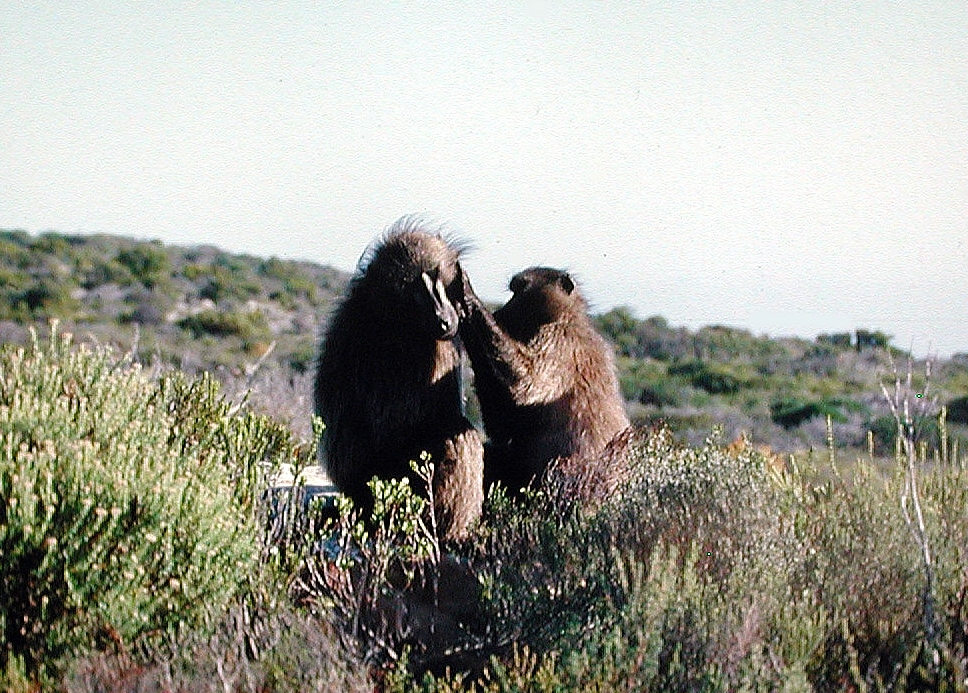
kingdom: Animalia
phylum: Chordata
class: Mammalia
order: Primates
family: Cercopithecidae
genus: Papio
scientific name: Papio ursinus
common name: Chacma baboon
